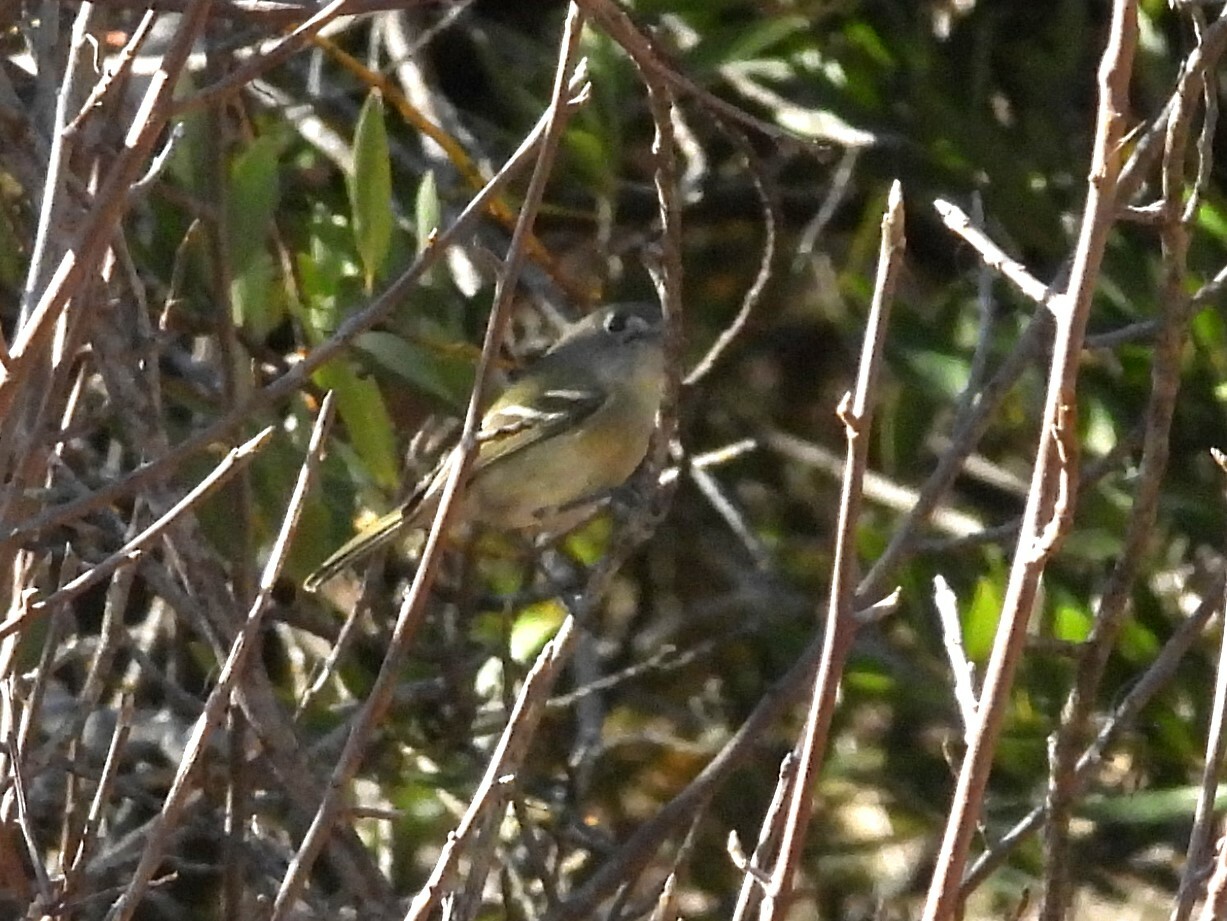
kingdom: Animalia
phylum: Chordata
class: Aves
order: Passeriformes
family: Vireonidae
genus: Vireo
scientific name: Vireo huttoni
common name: Hutton's vireo
